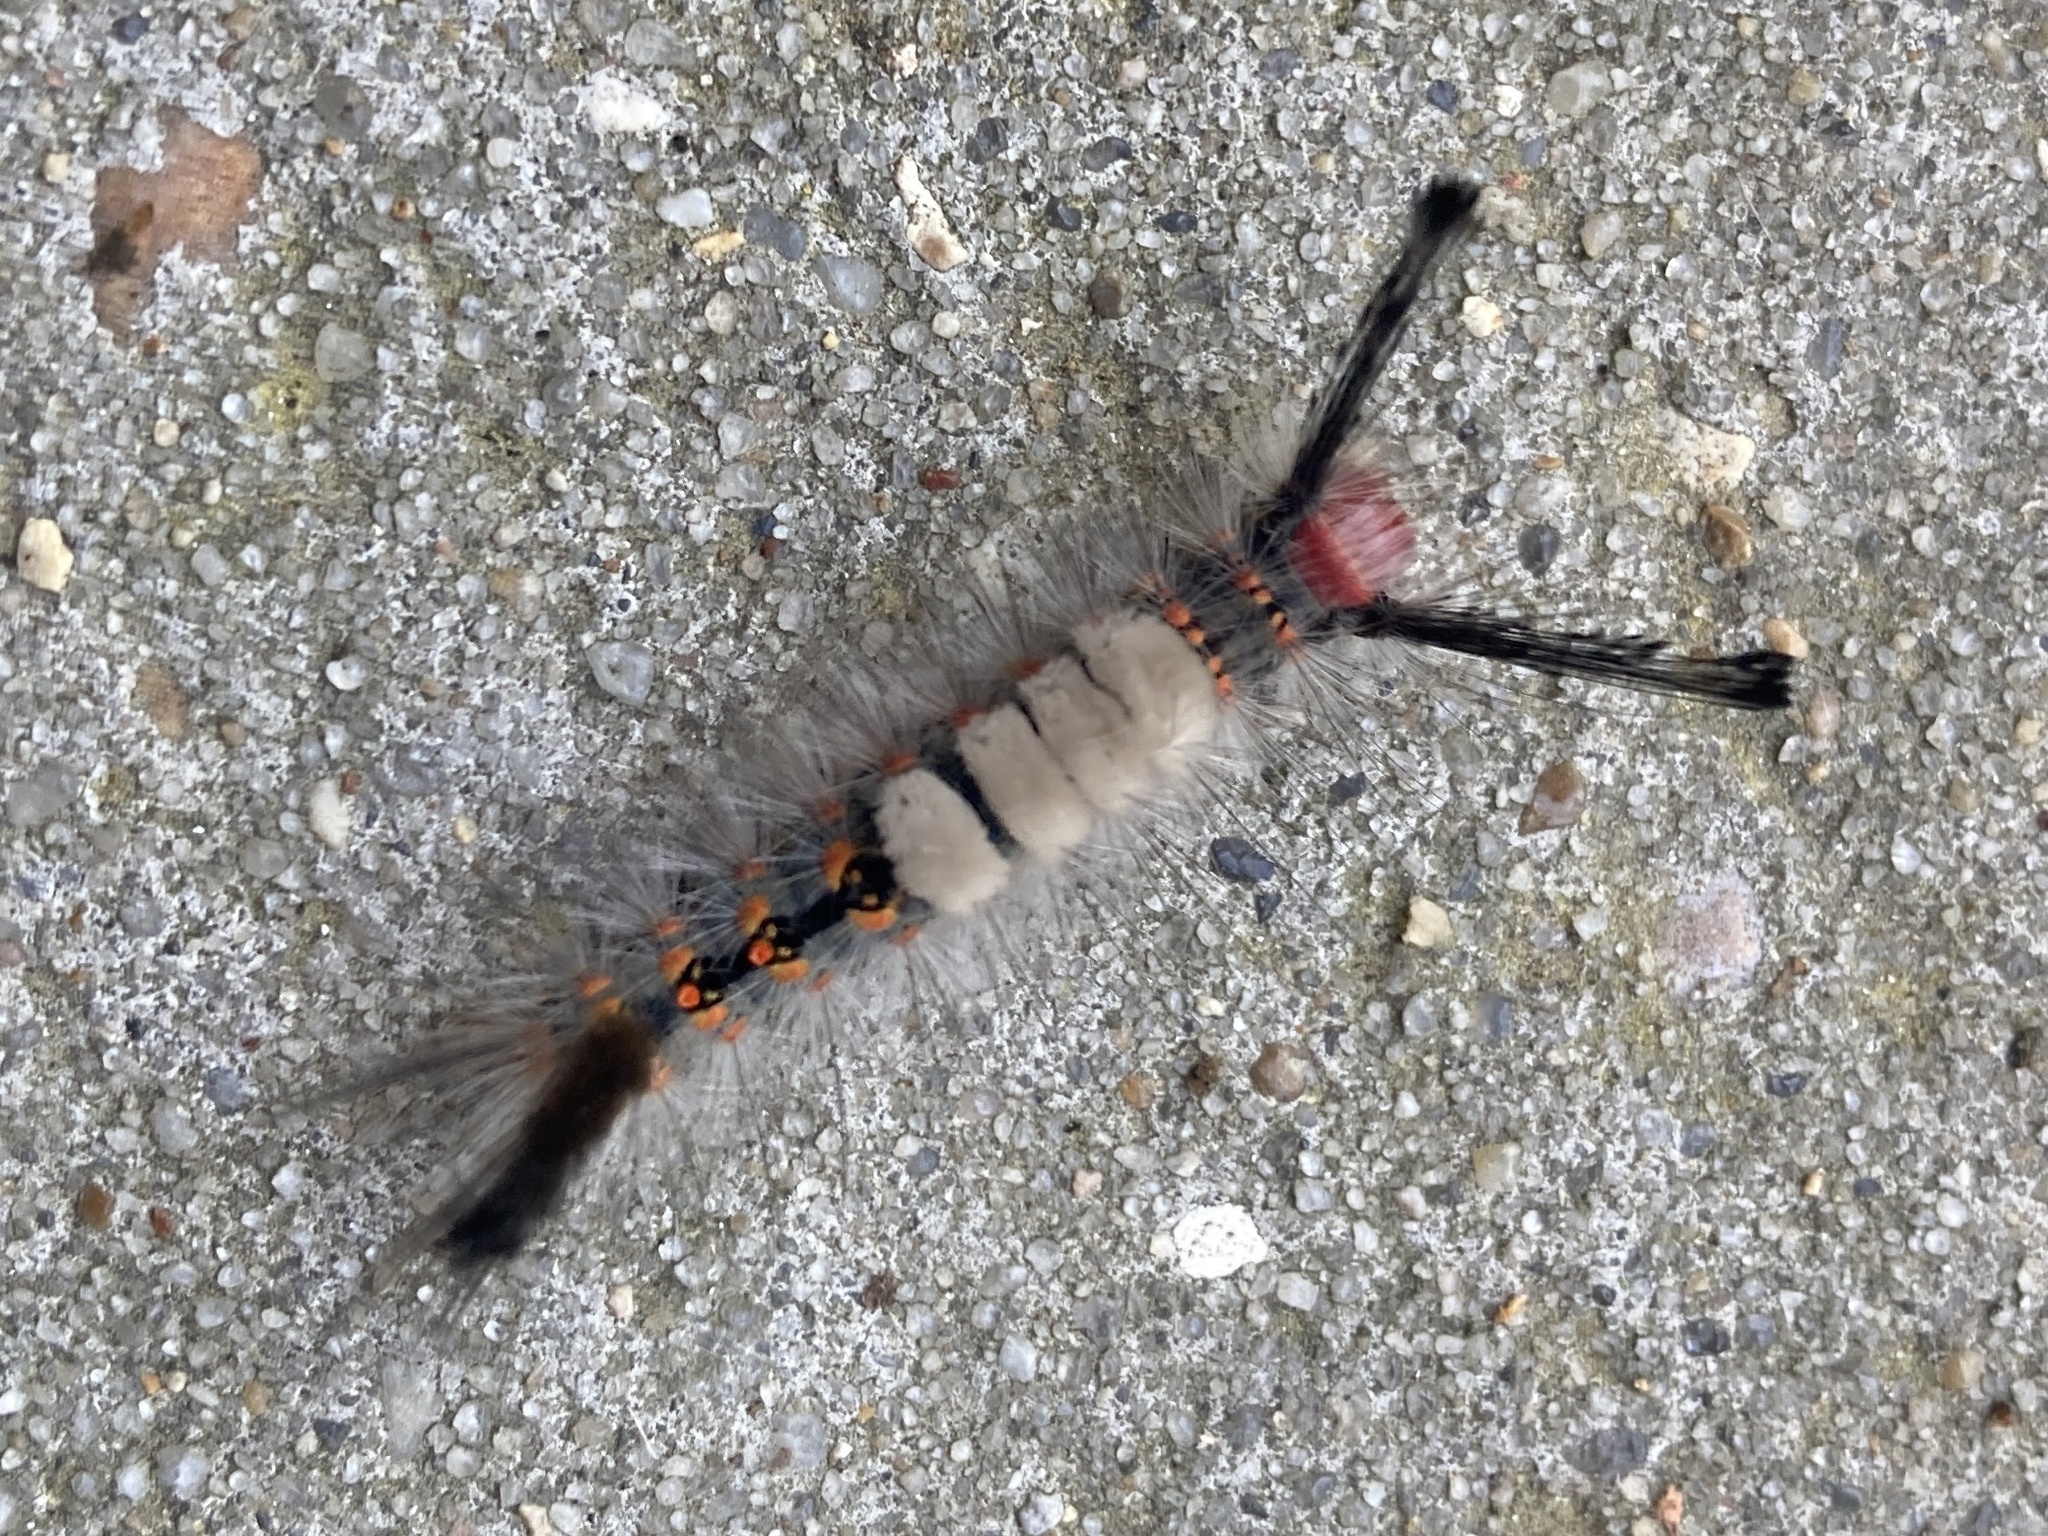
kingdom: Animalia
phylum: Arthropoda
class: Insecta
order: Lepidoptera
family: Erebidae
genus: Orgyia
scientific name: Orgyia detrita
